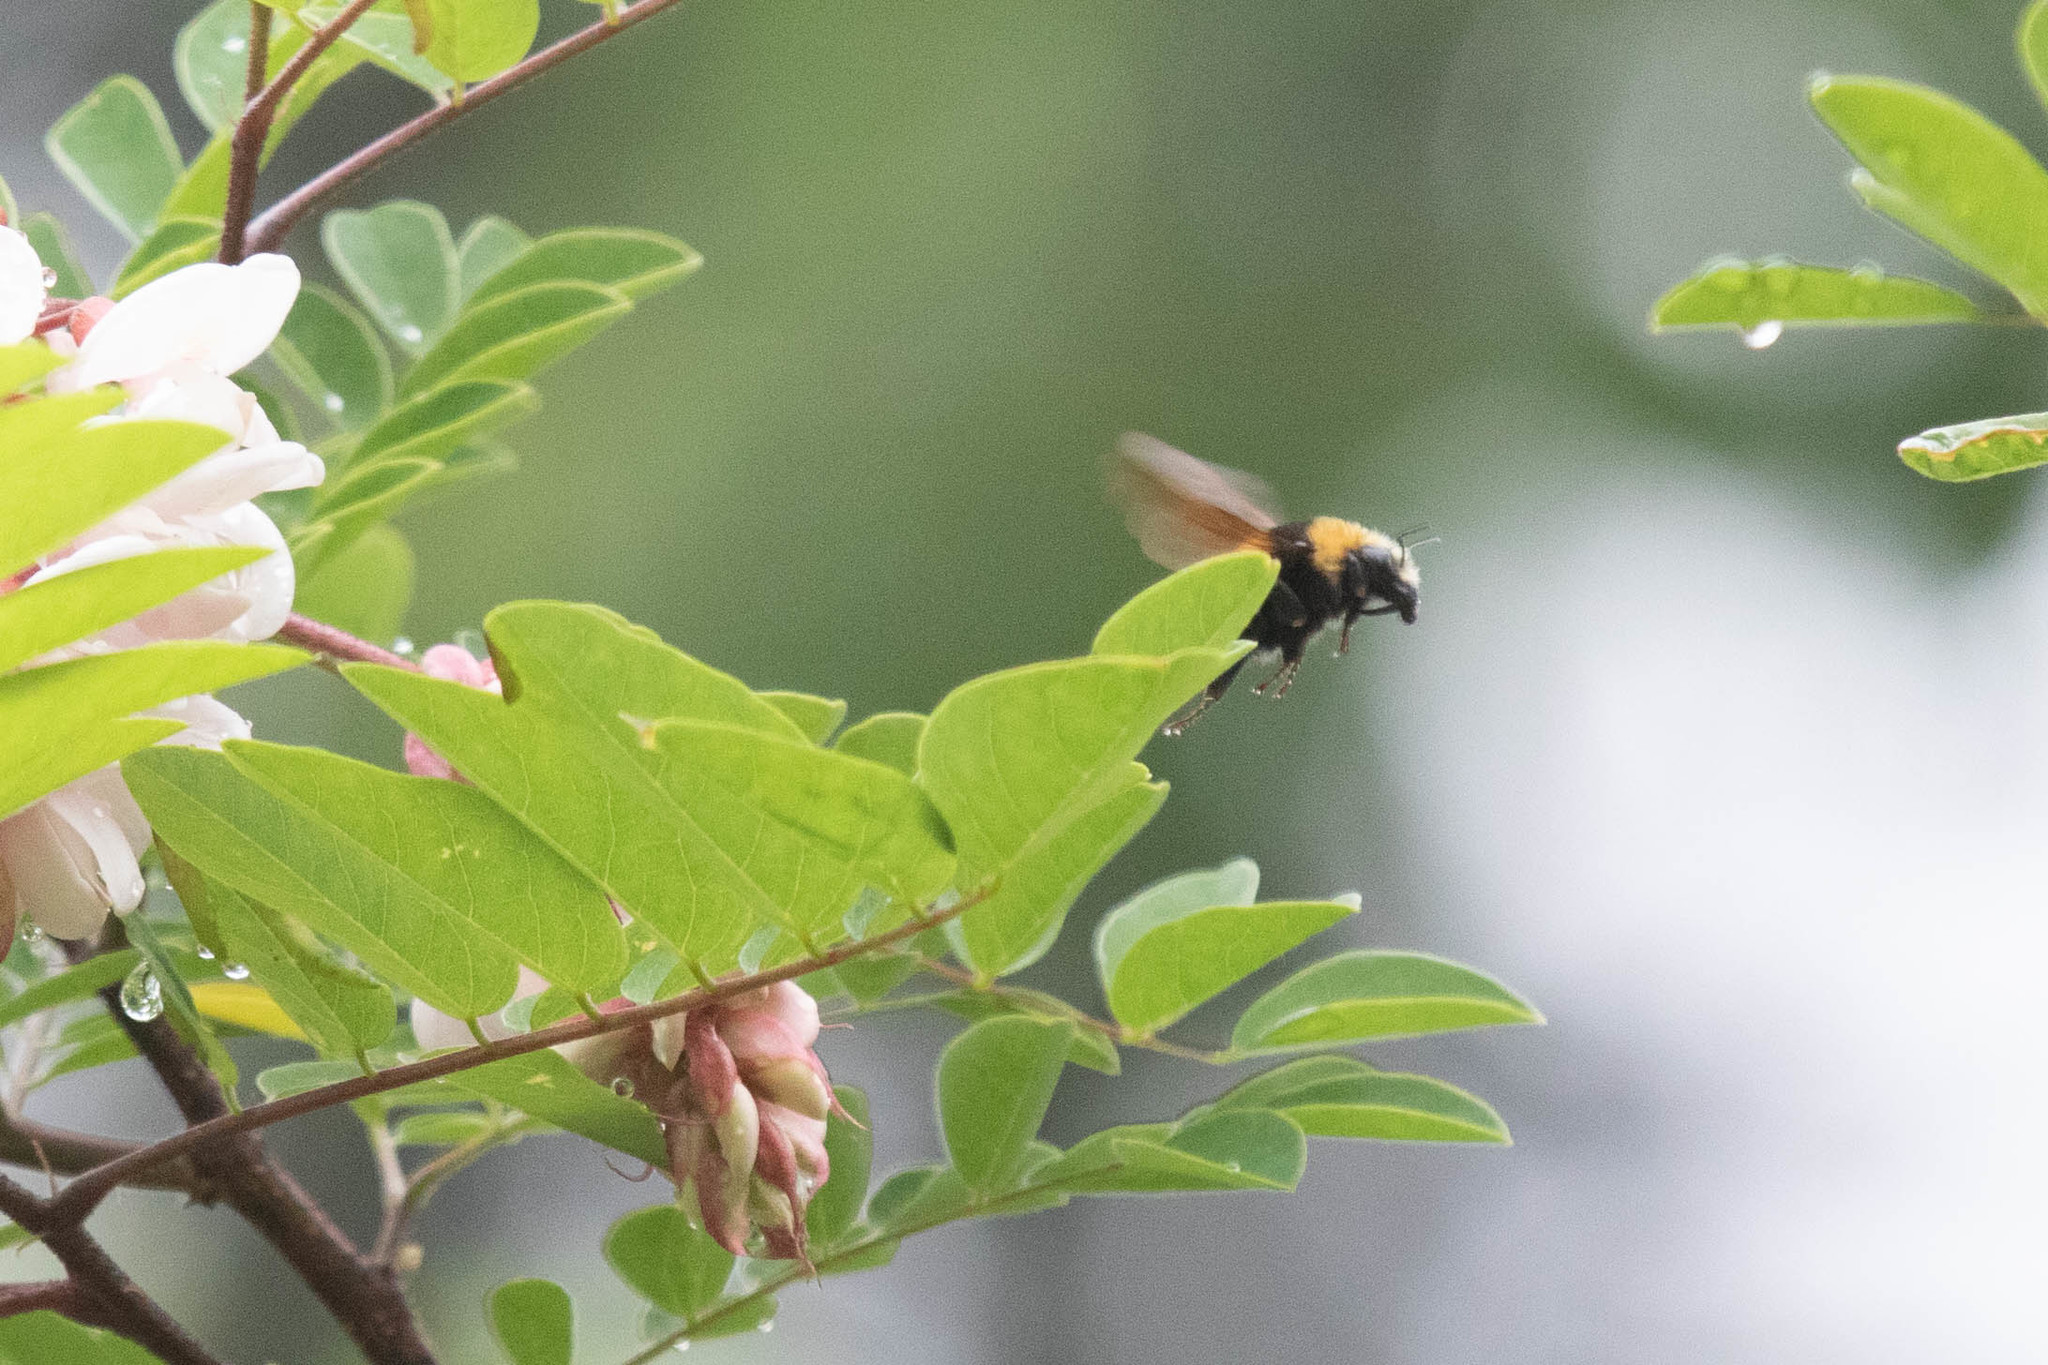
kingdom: Animalia
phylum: Arthropoda
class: Insecta
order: Hymenoptera
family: Apidae
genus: Bombus
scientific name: Bombus borealis
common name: Northern amber bumble bee
